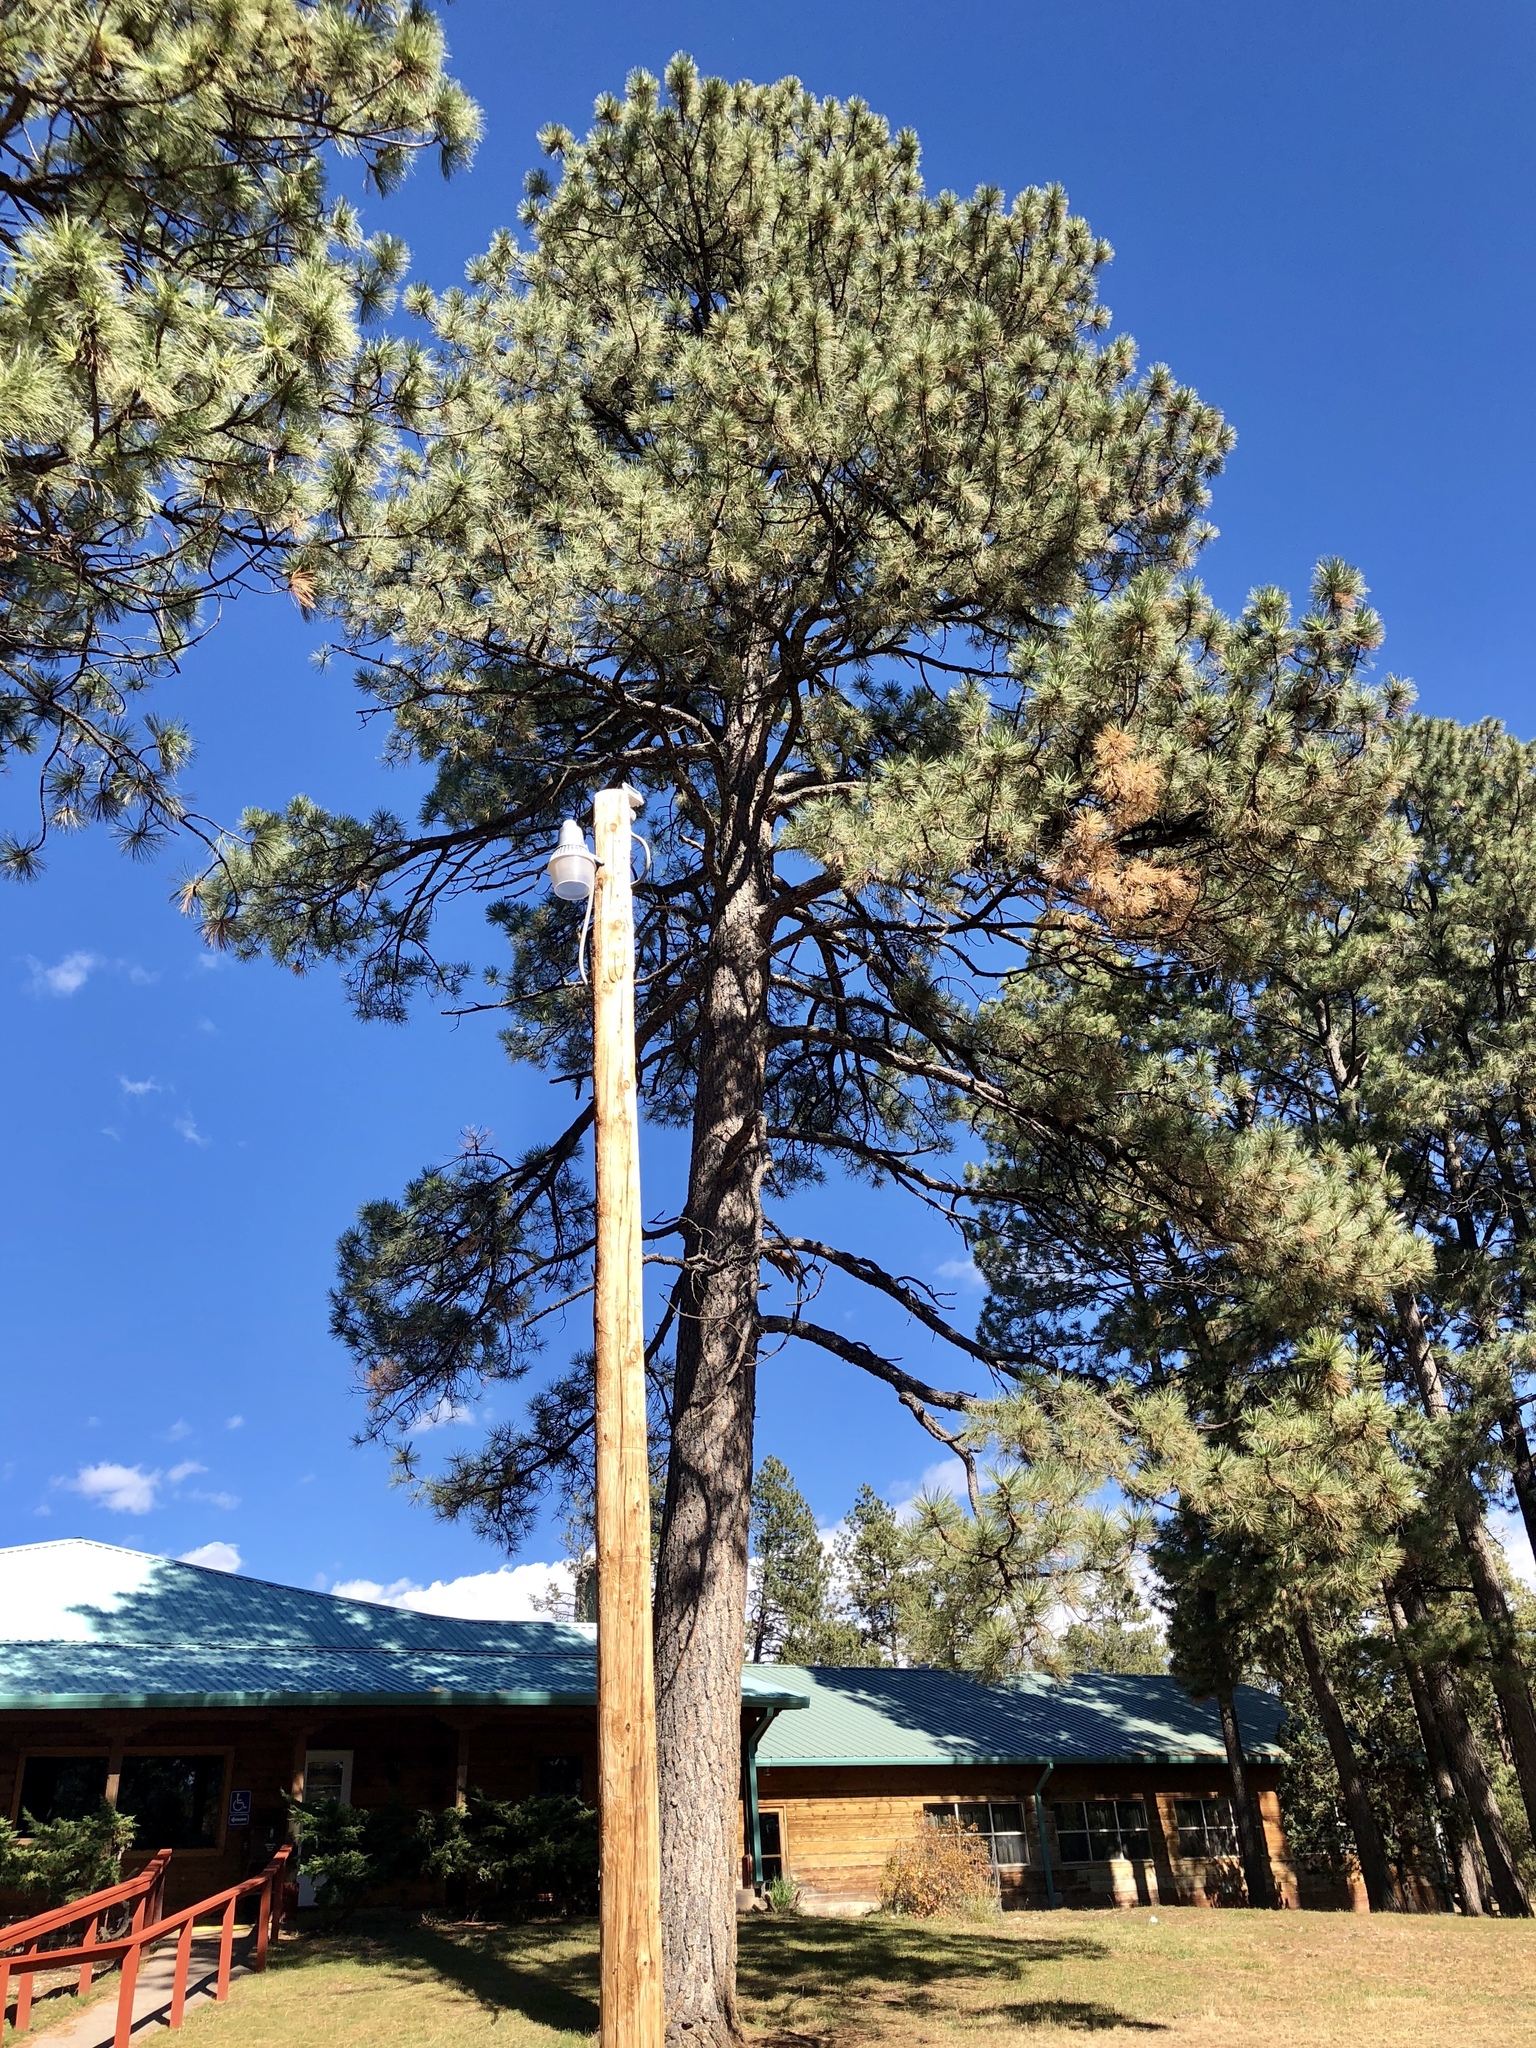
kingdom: Plantae
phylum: Tracheophyta
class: Pinopsida
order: Pinales
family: Pinaceae
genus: Pinus
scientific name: Pinus ponderosa
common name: Western yellow-pine
